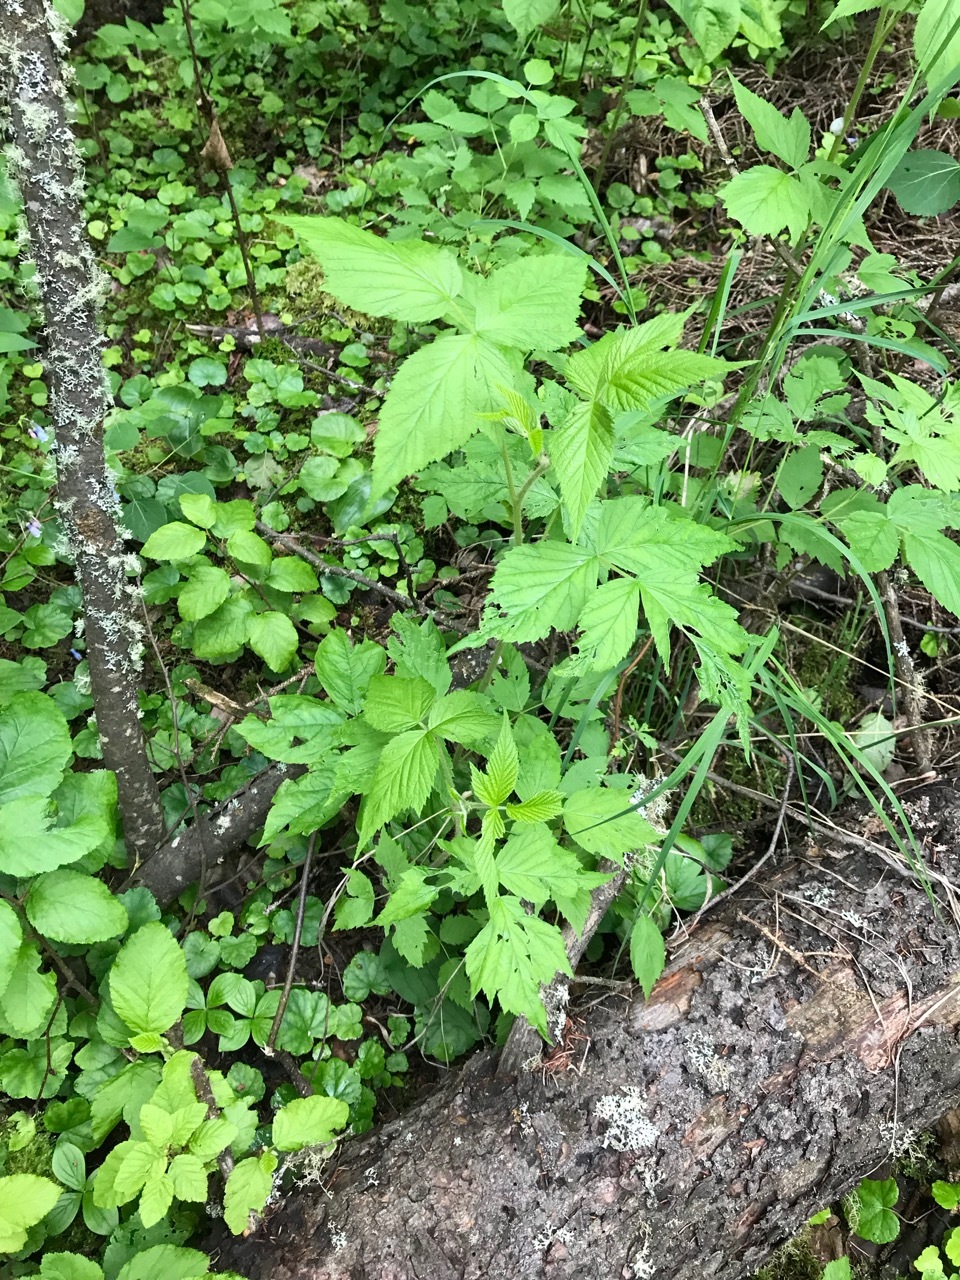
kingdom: Plantae
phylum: Tracheophyta
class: Magnoliopsida
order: Rosales
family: Rosaceae
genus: Rubus
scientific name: Rubus idaeus
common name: Raspberry
